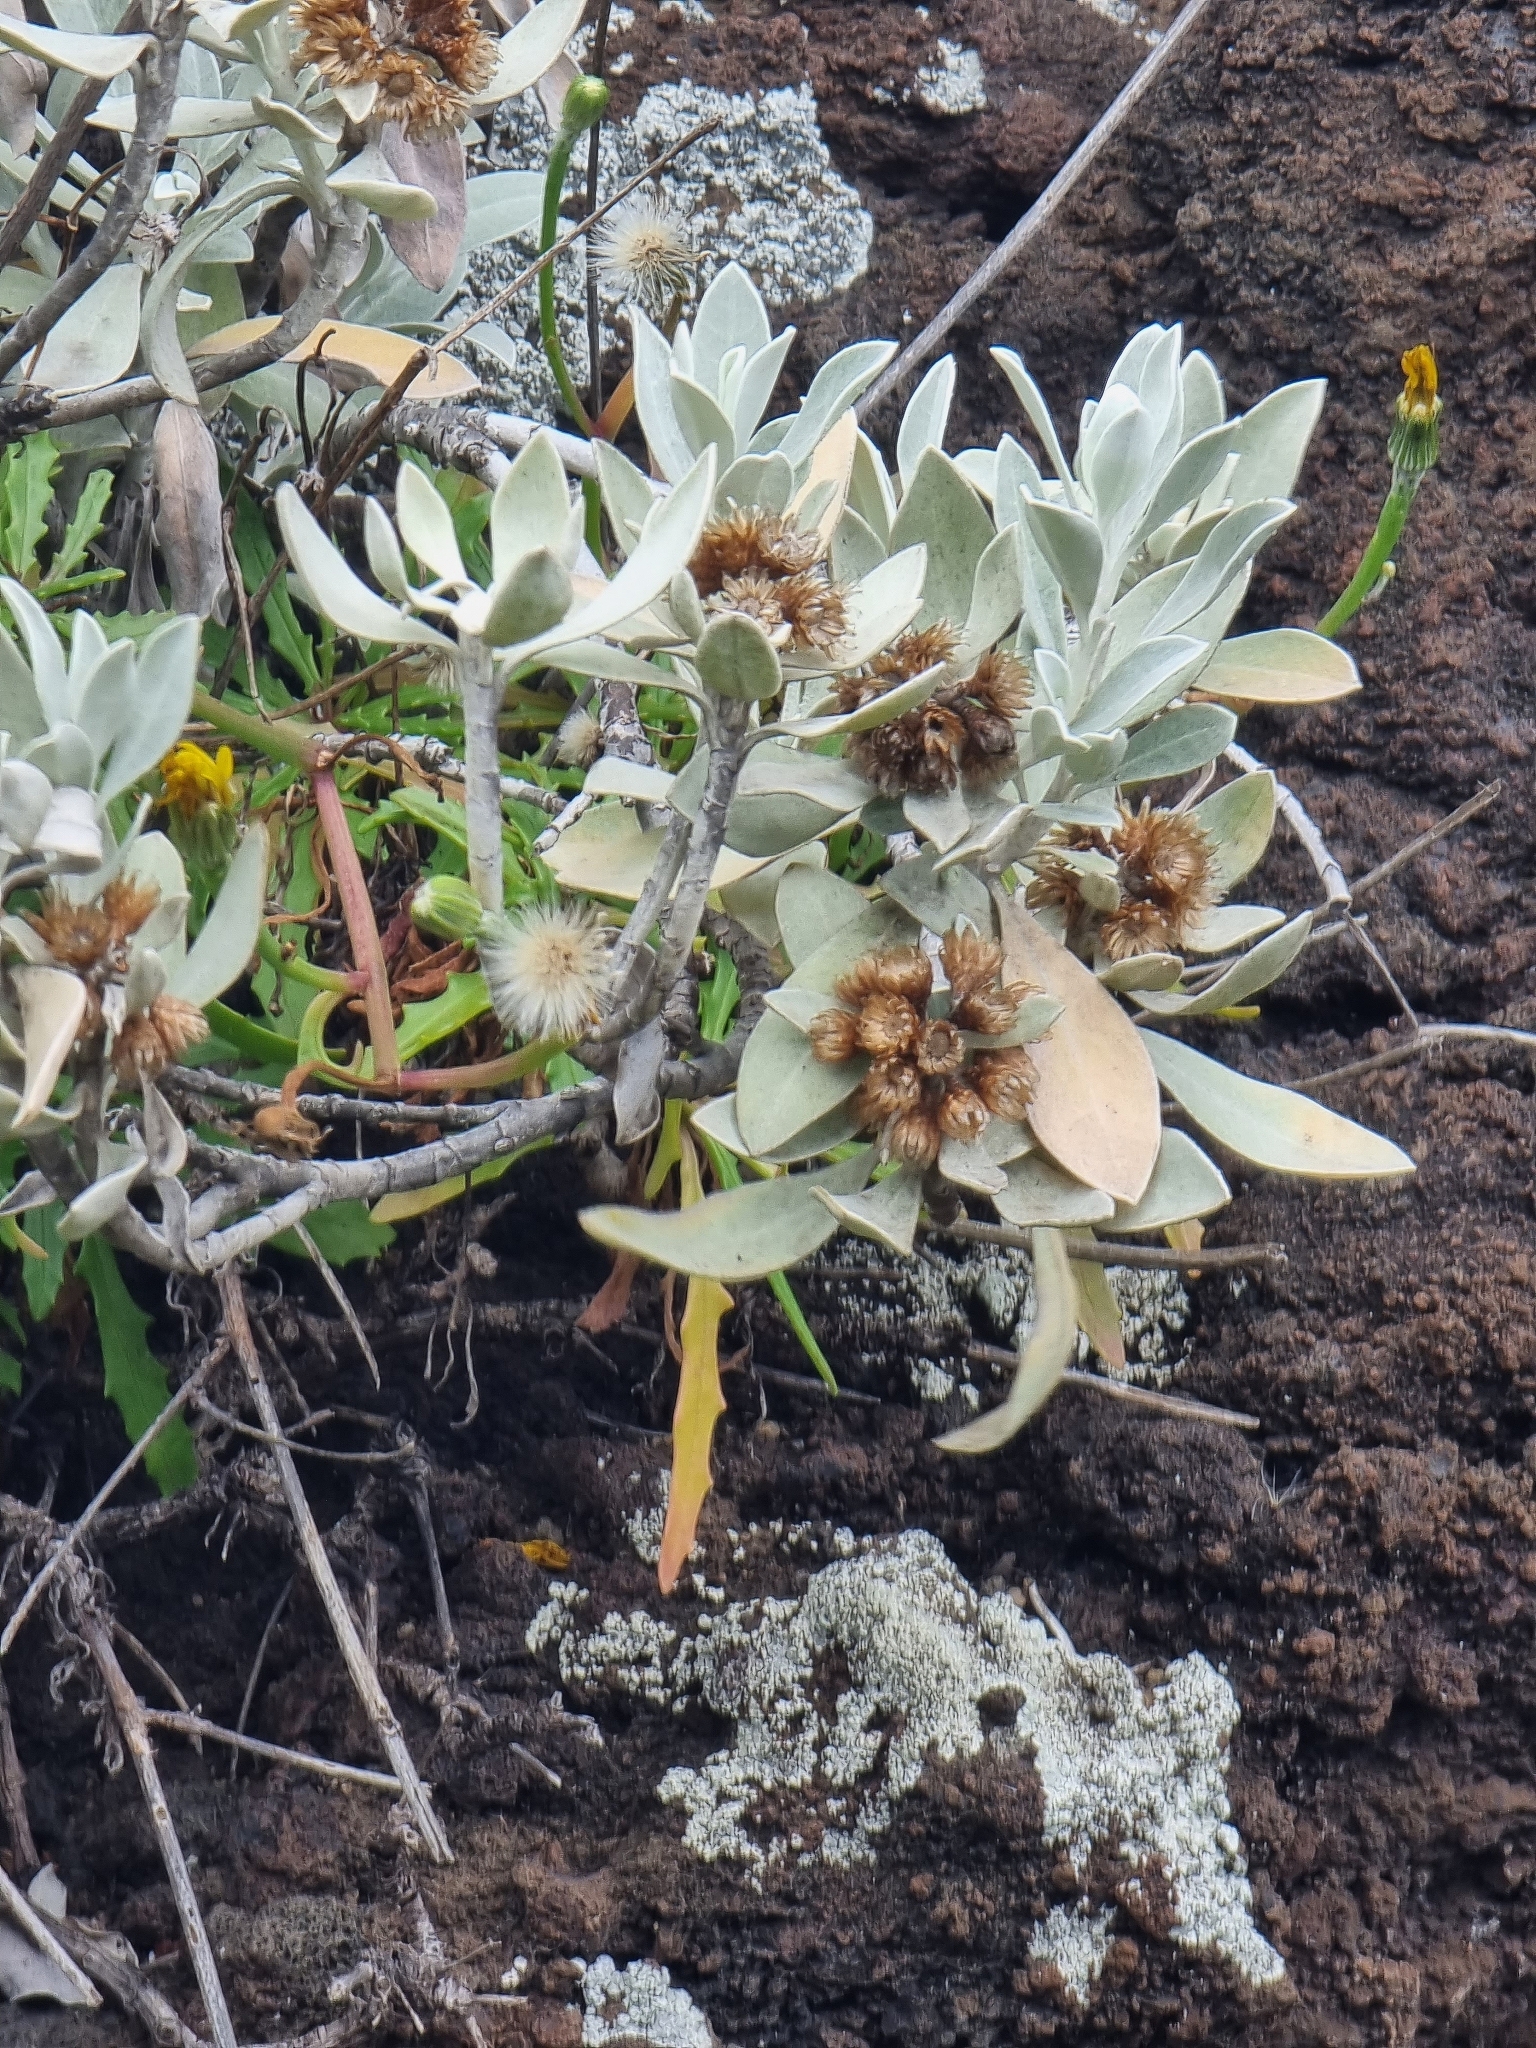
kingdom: Plantae
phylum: Tracheophyta
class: Magnoliopsida
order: Asterales
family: Asteraceae
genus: Helichrysum
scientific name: Helichrysum obconicum
